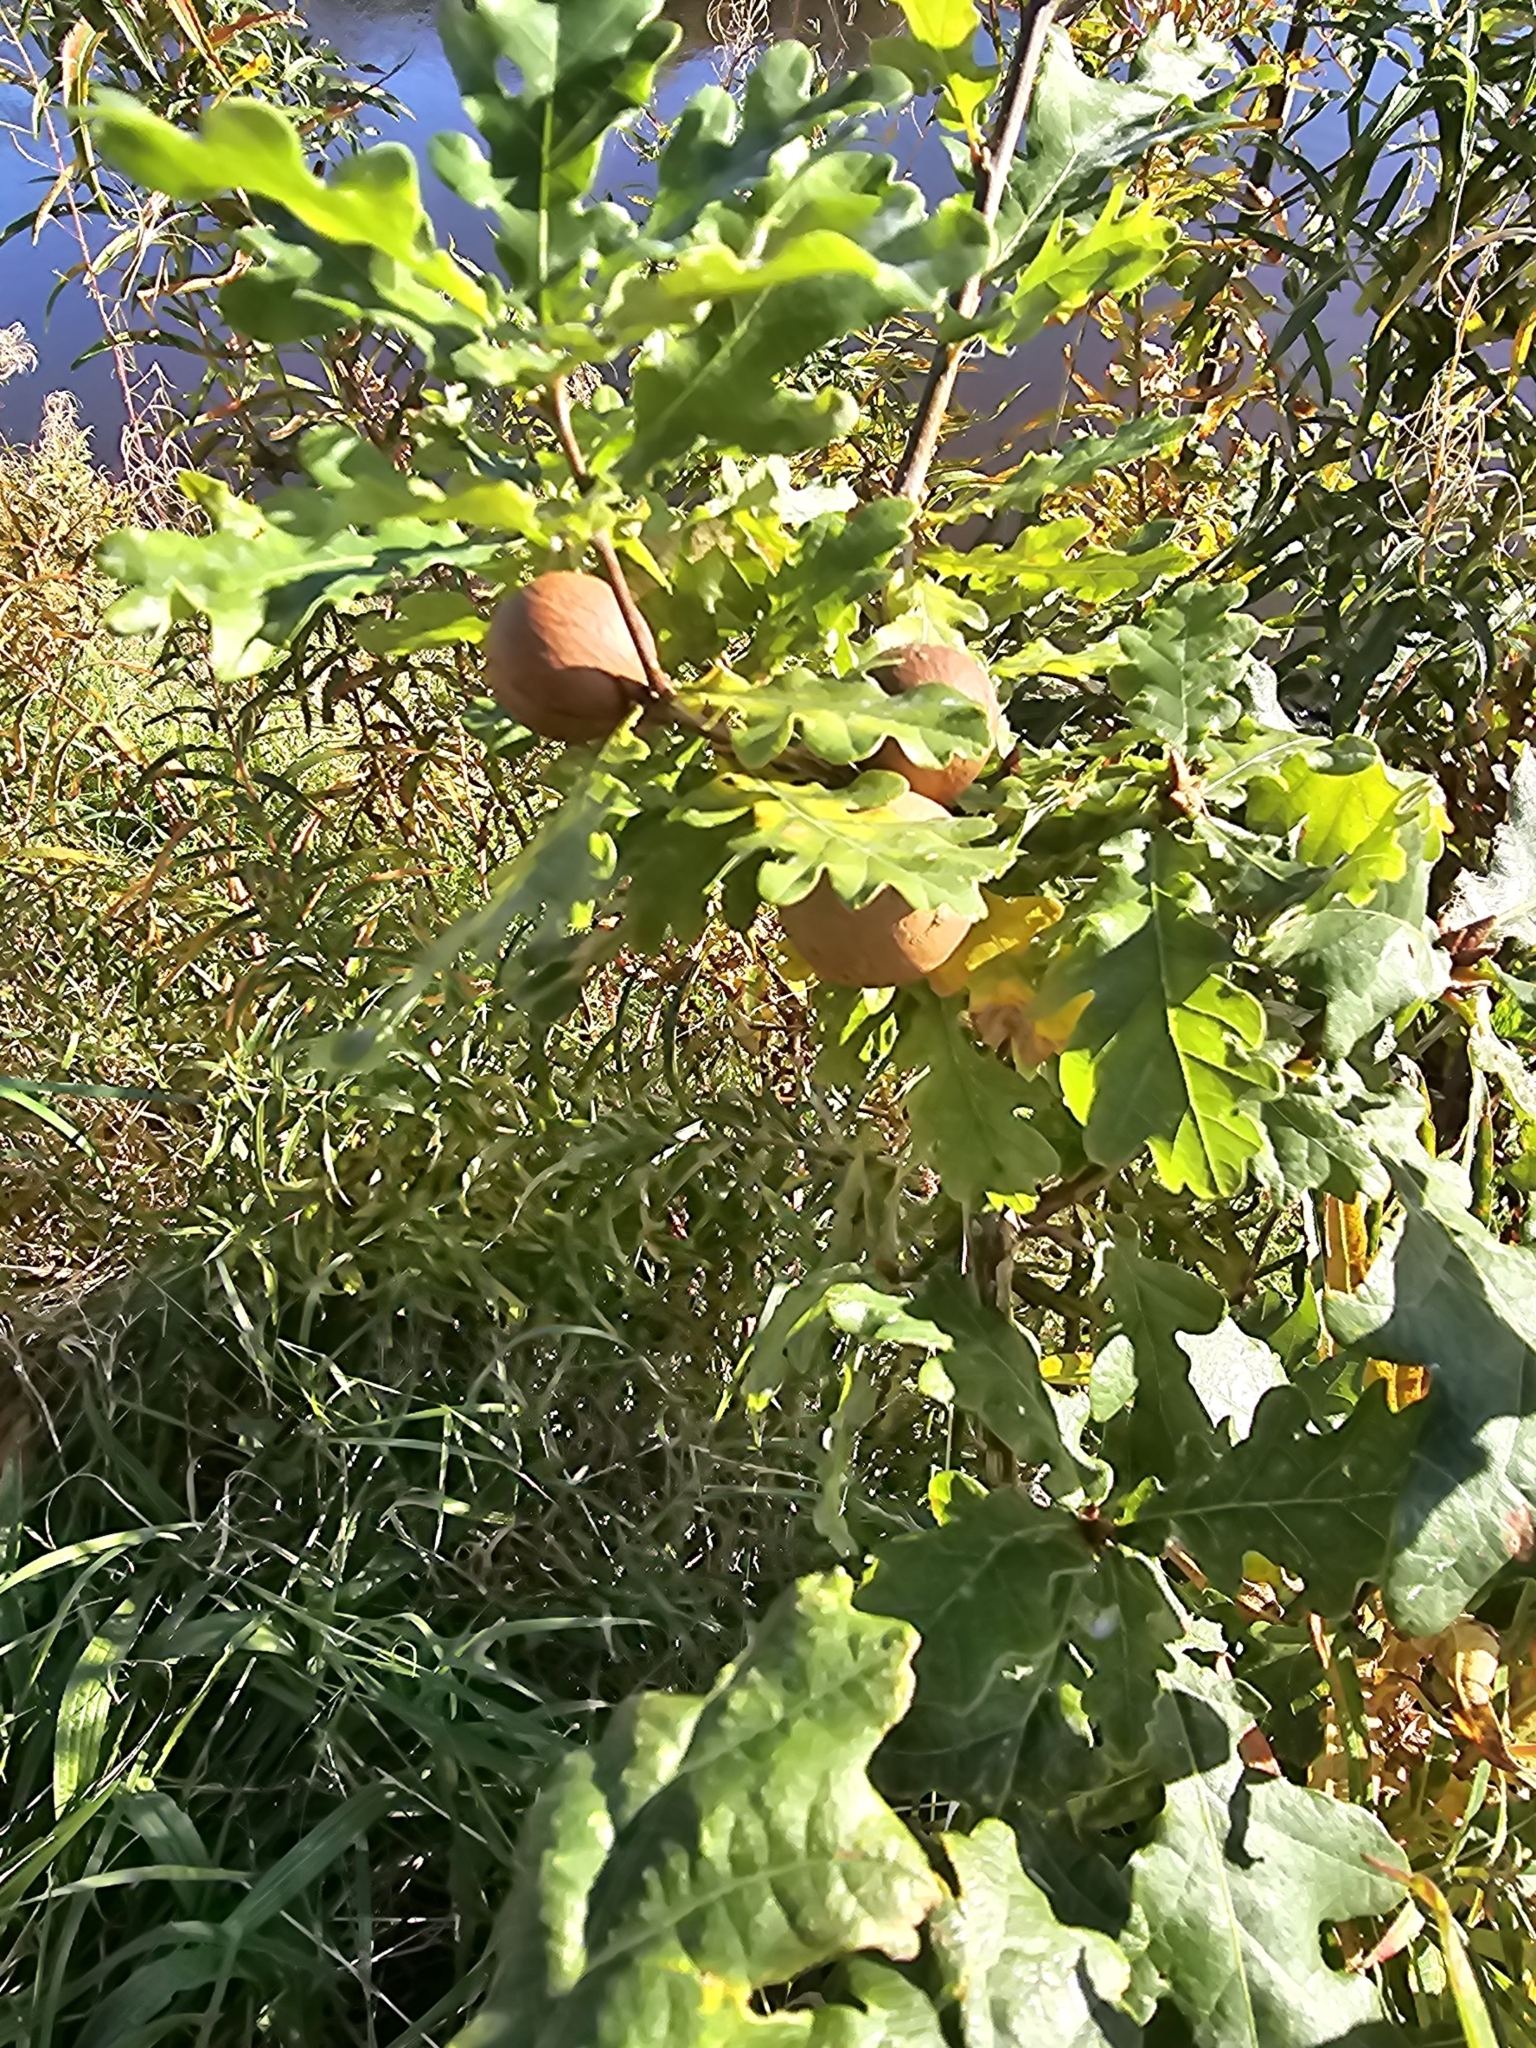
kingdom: Animalia
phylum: Arthropoda
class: Insecta
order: Hymenoptera
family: Cynipidae
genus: Andricus
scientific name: Andricus kollari
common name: Marble gall
